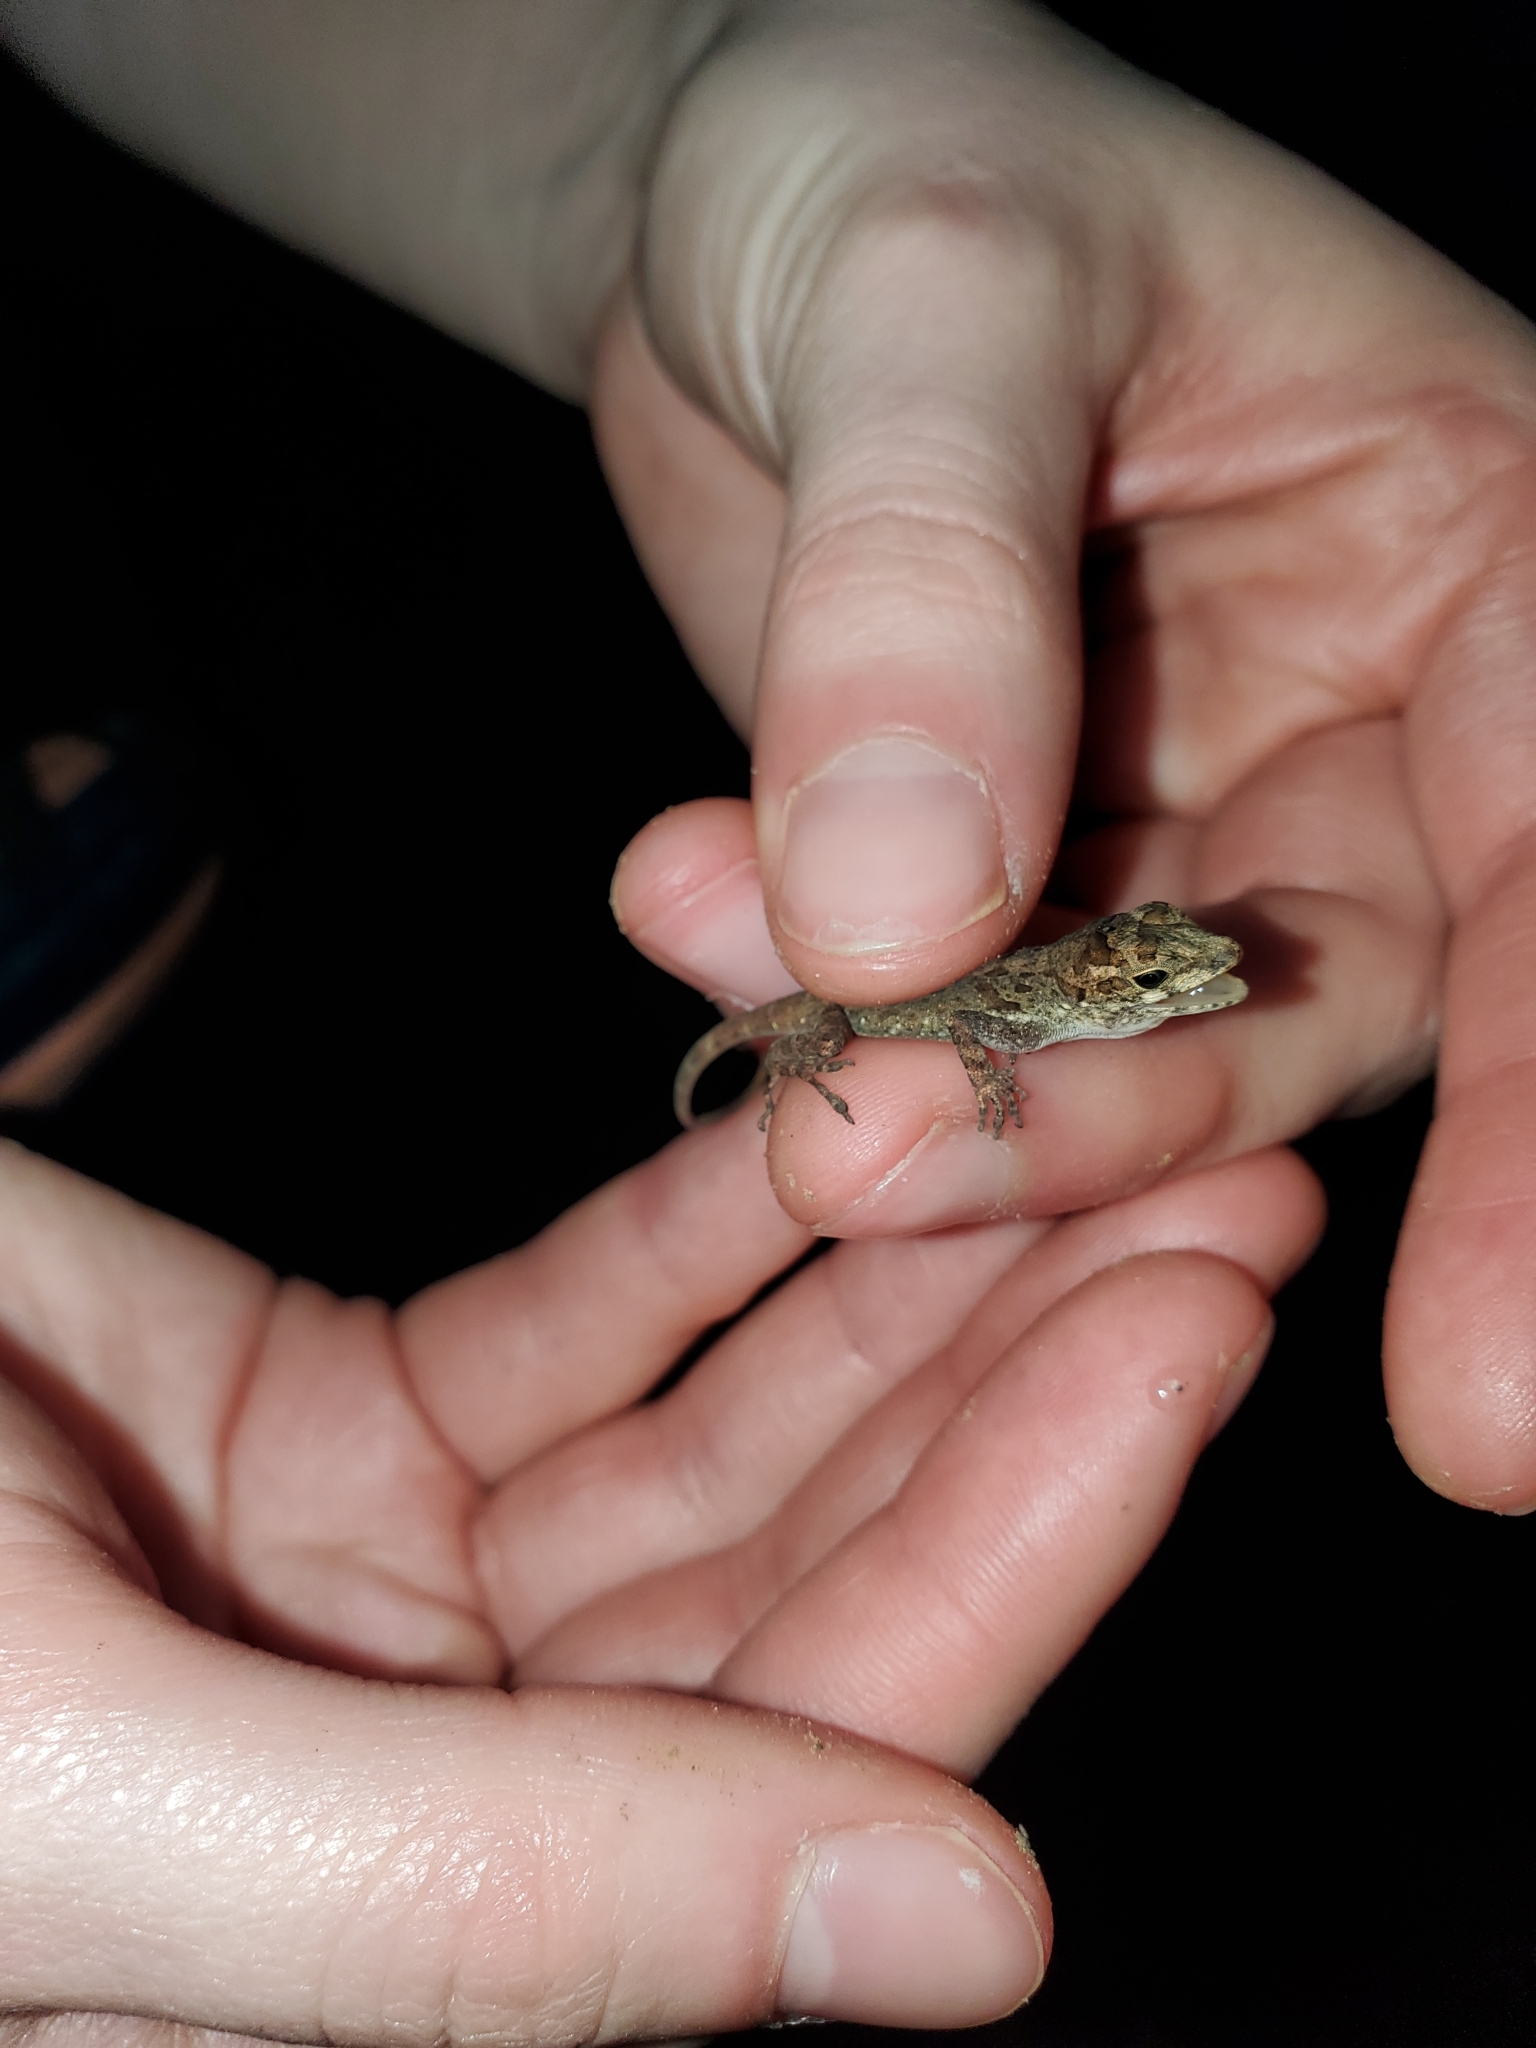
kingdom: Animalia
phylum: Chordata
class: Squamata
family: Dactyloidae
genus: Anolis
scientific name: Anolis cristatellus
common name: Crested anole
